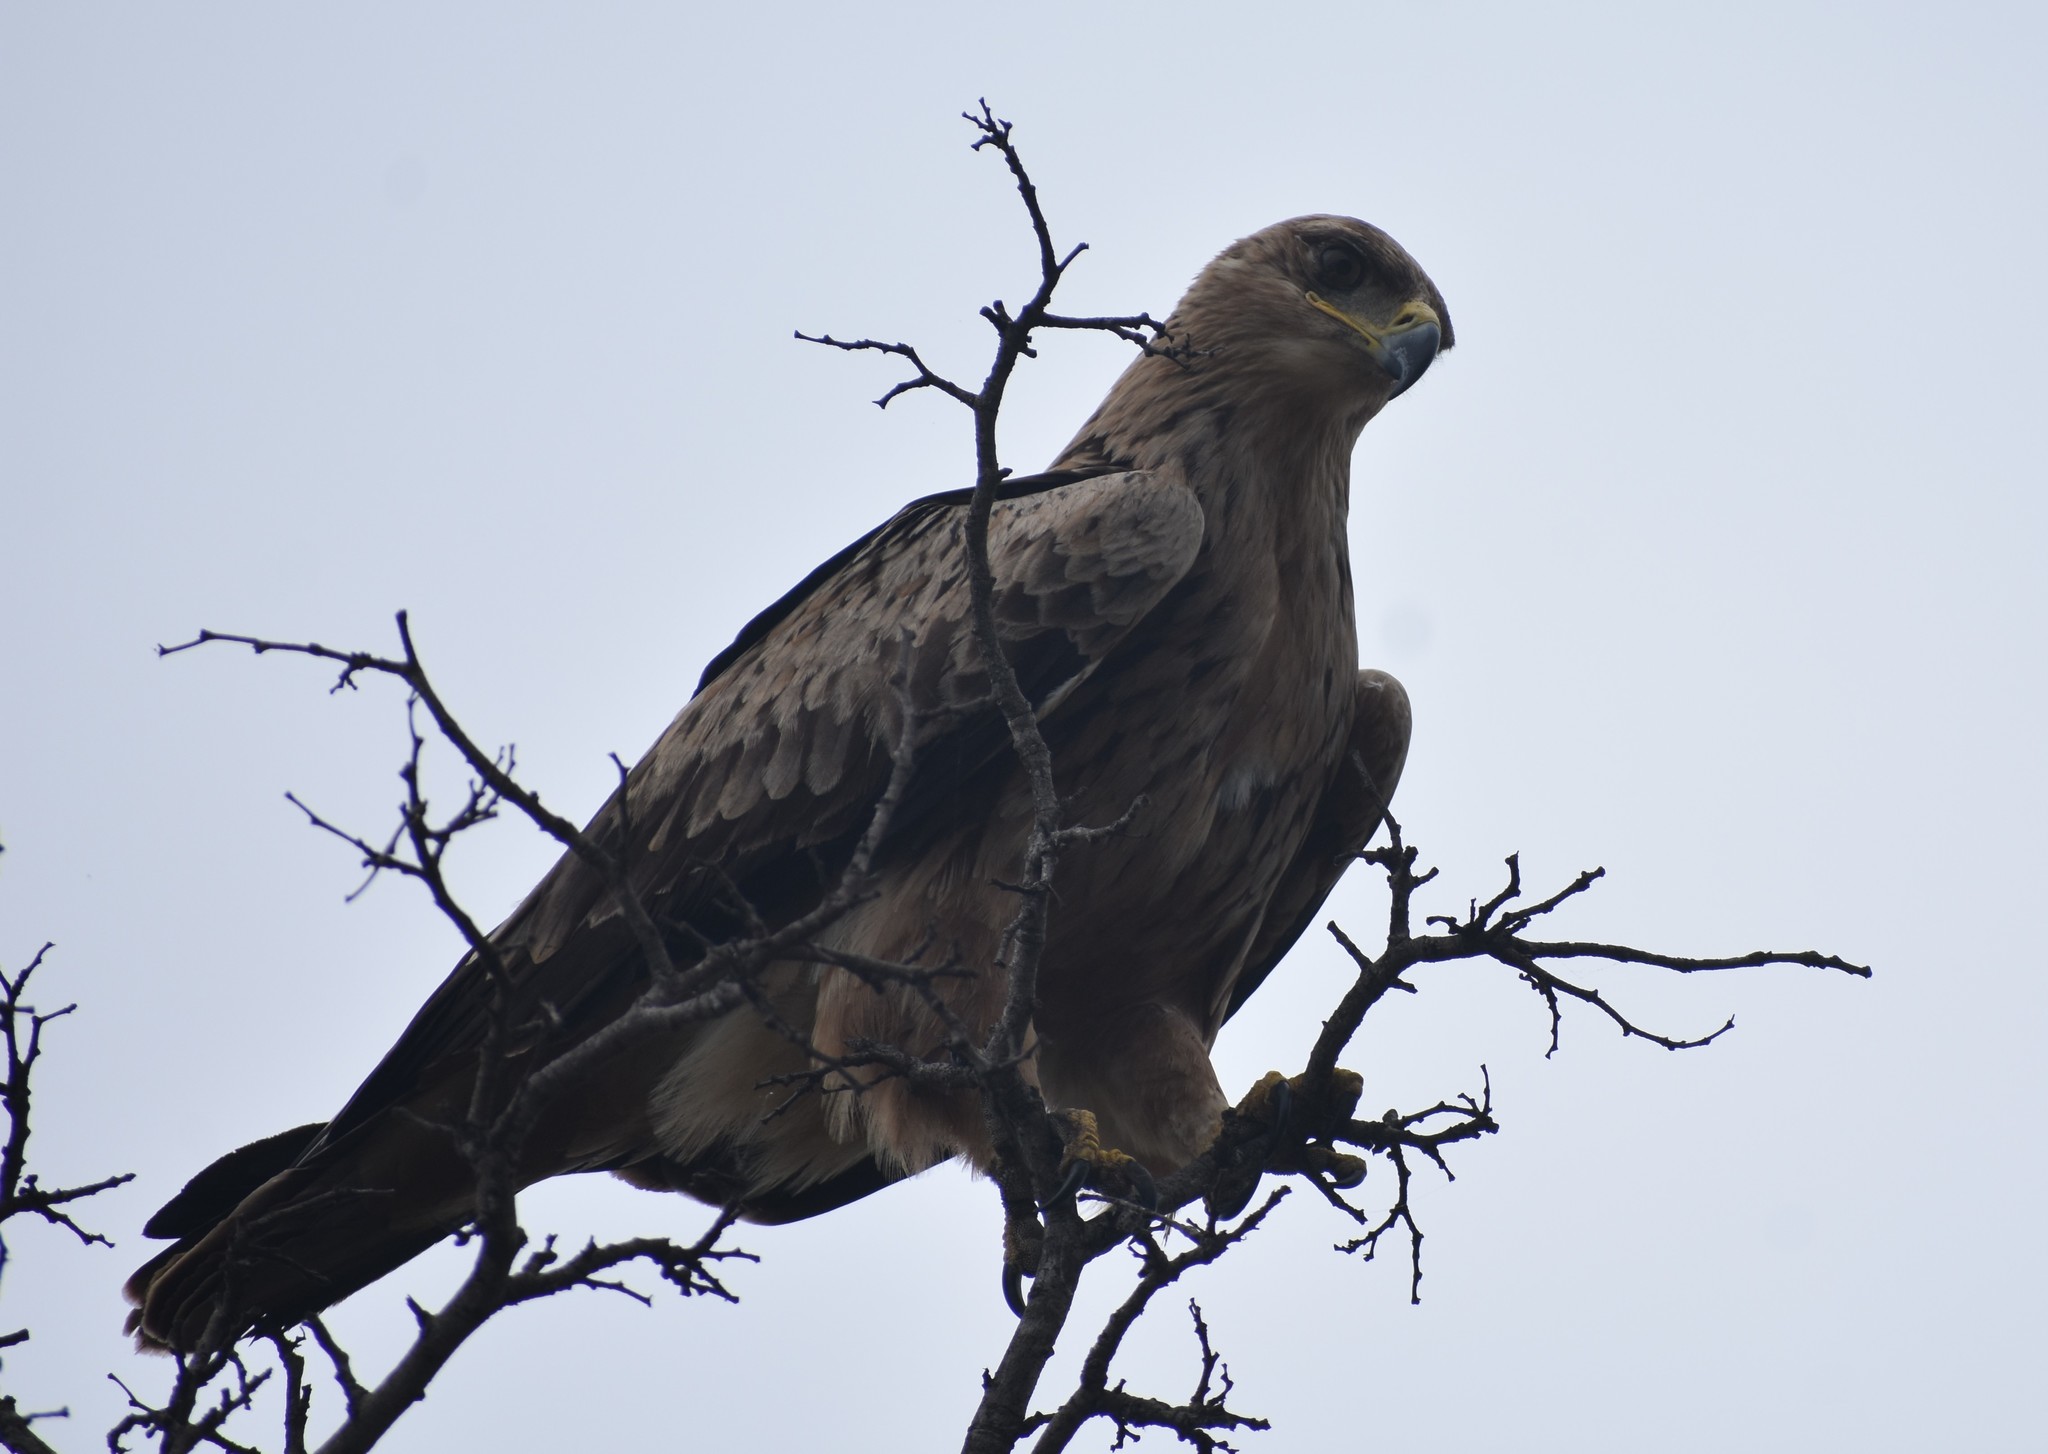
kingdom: Animalia
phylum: Chordata
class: Aves
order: Accipitriformes
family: Accipitridae
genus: Aquila
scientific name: Aquila rapax
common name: Tawny eagle
